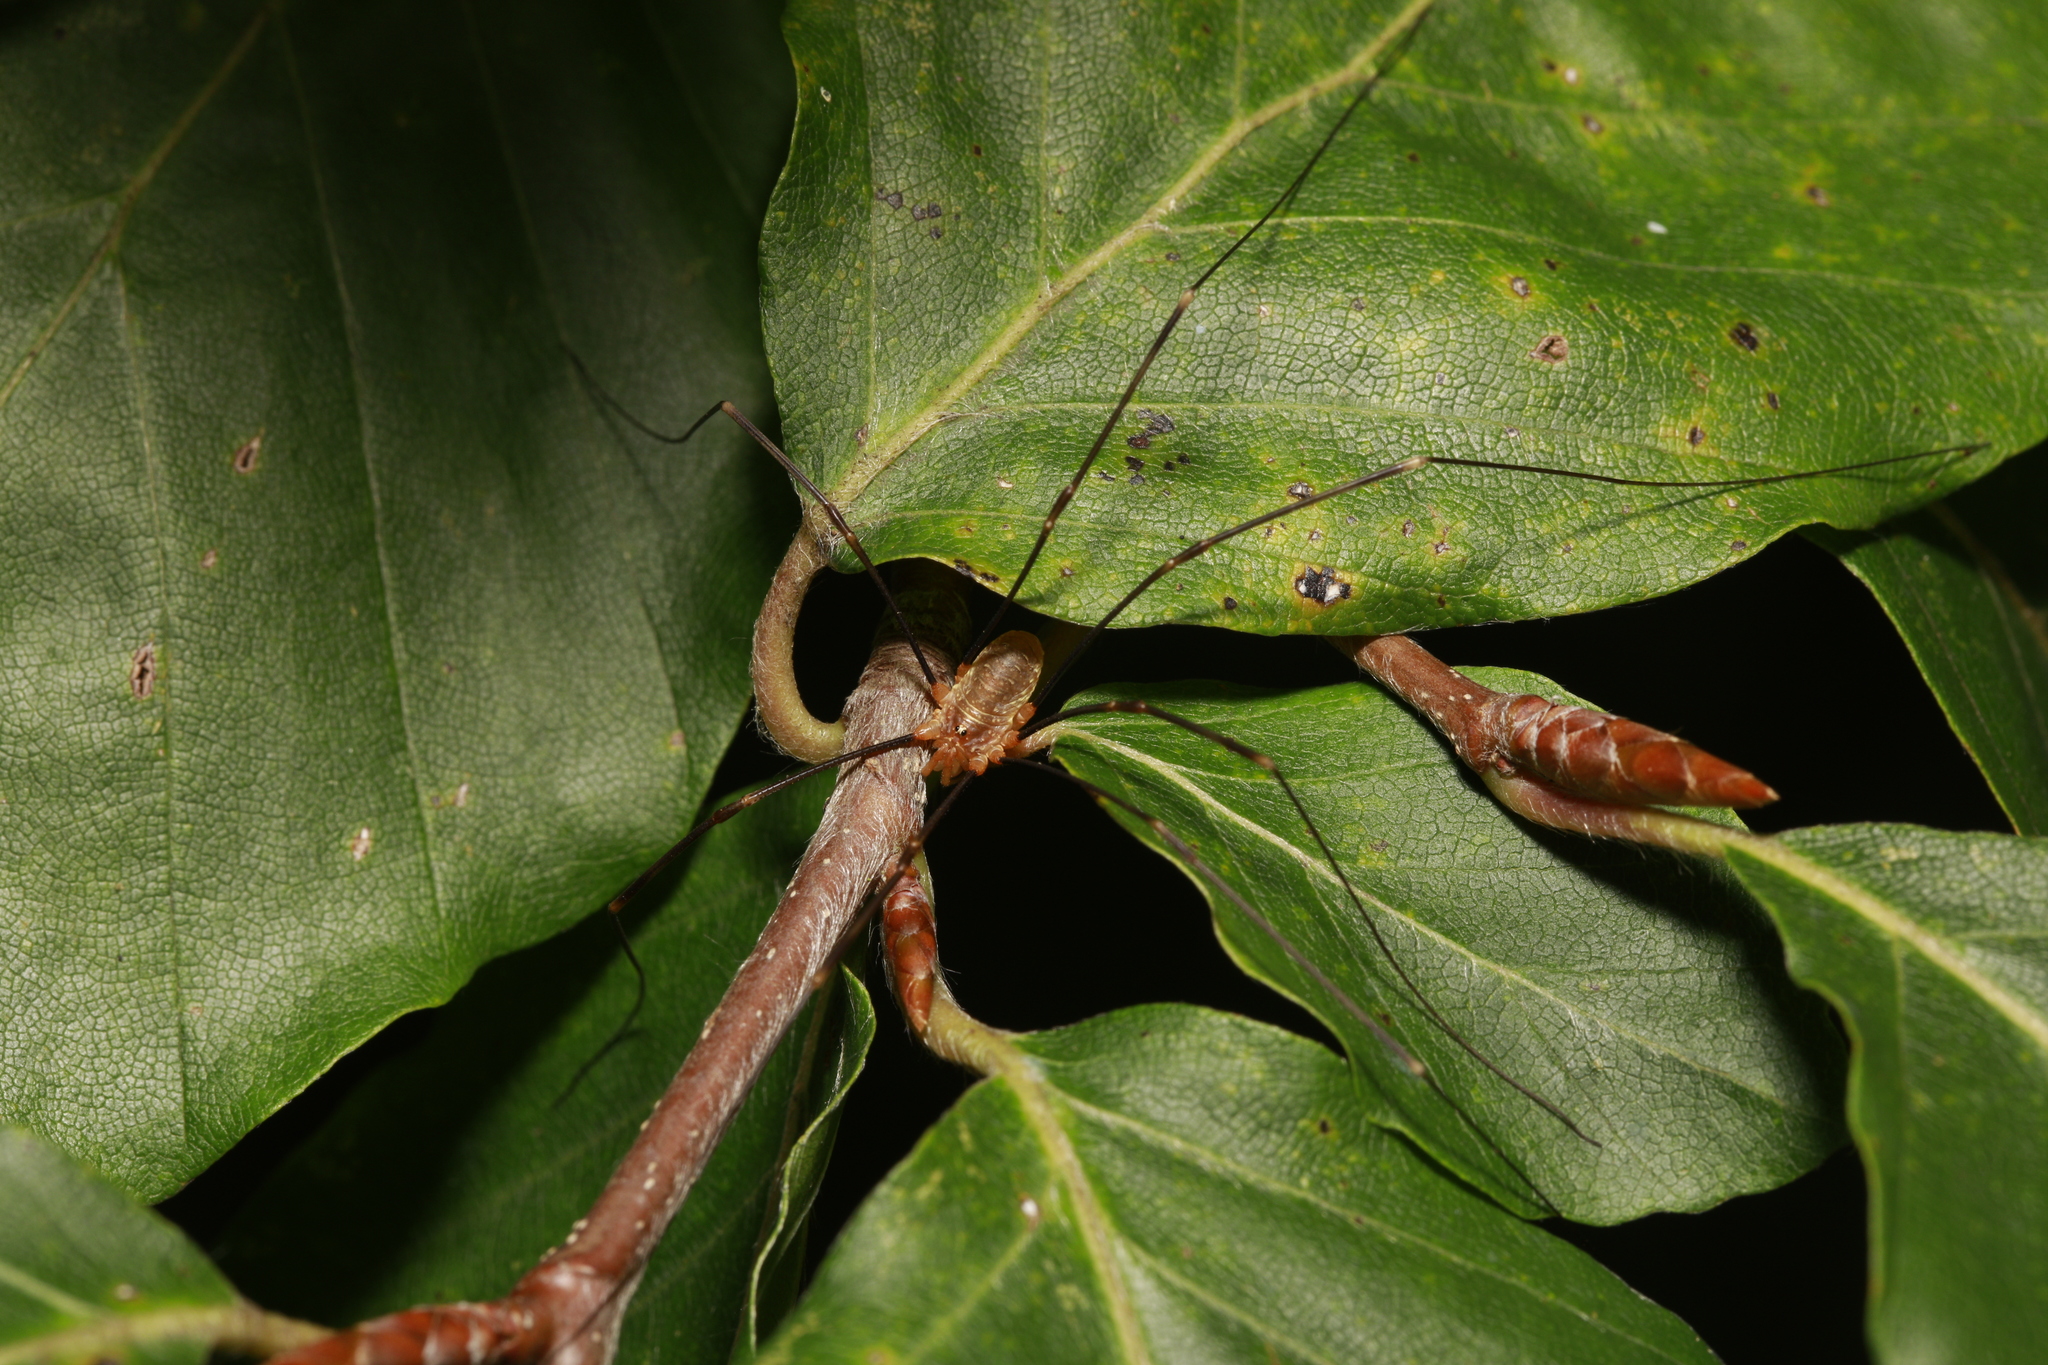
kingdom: Animalia
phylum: Arthropoda
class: Arachnida
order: Opiliones
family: Phalangiidae
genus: Opilio
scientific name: Opilio canestrinii
